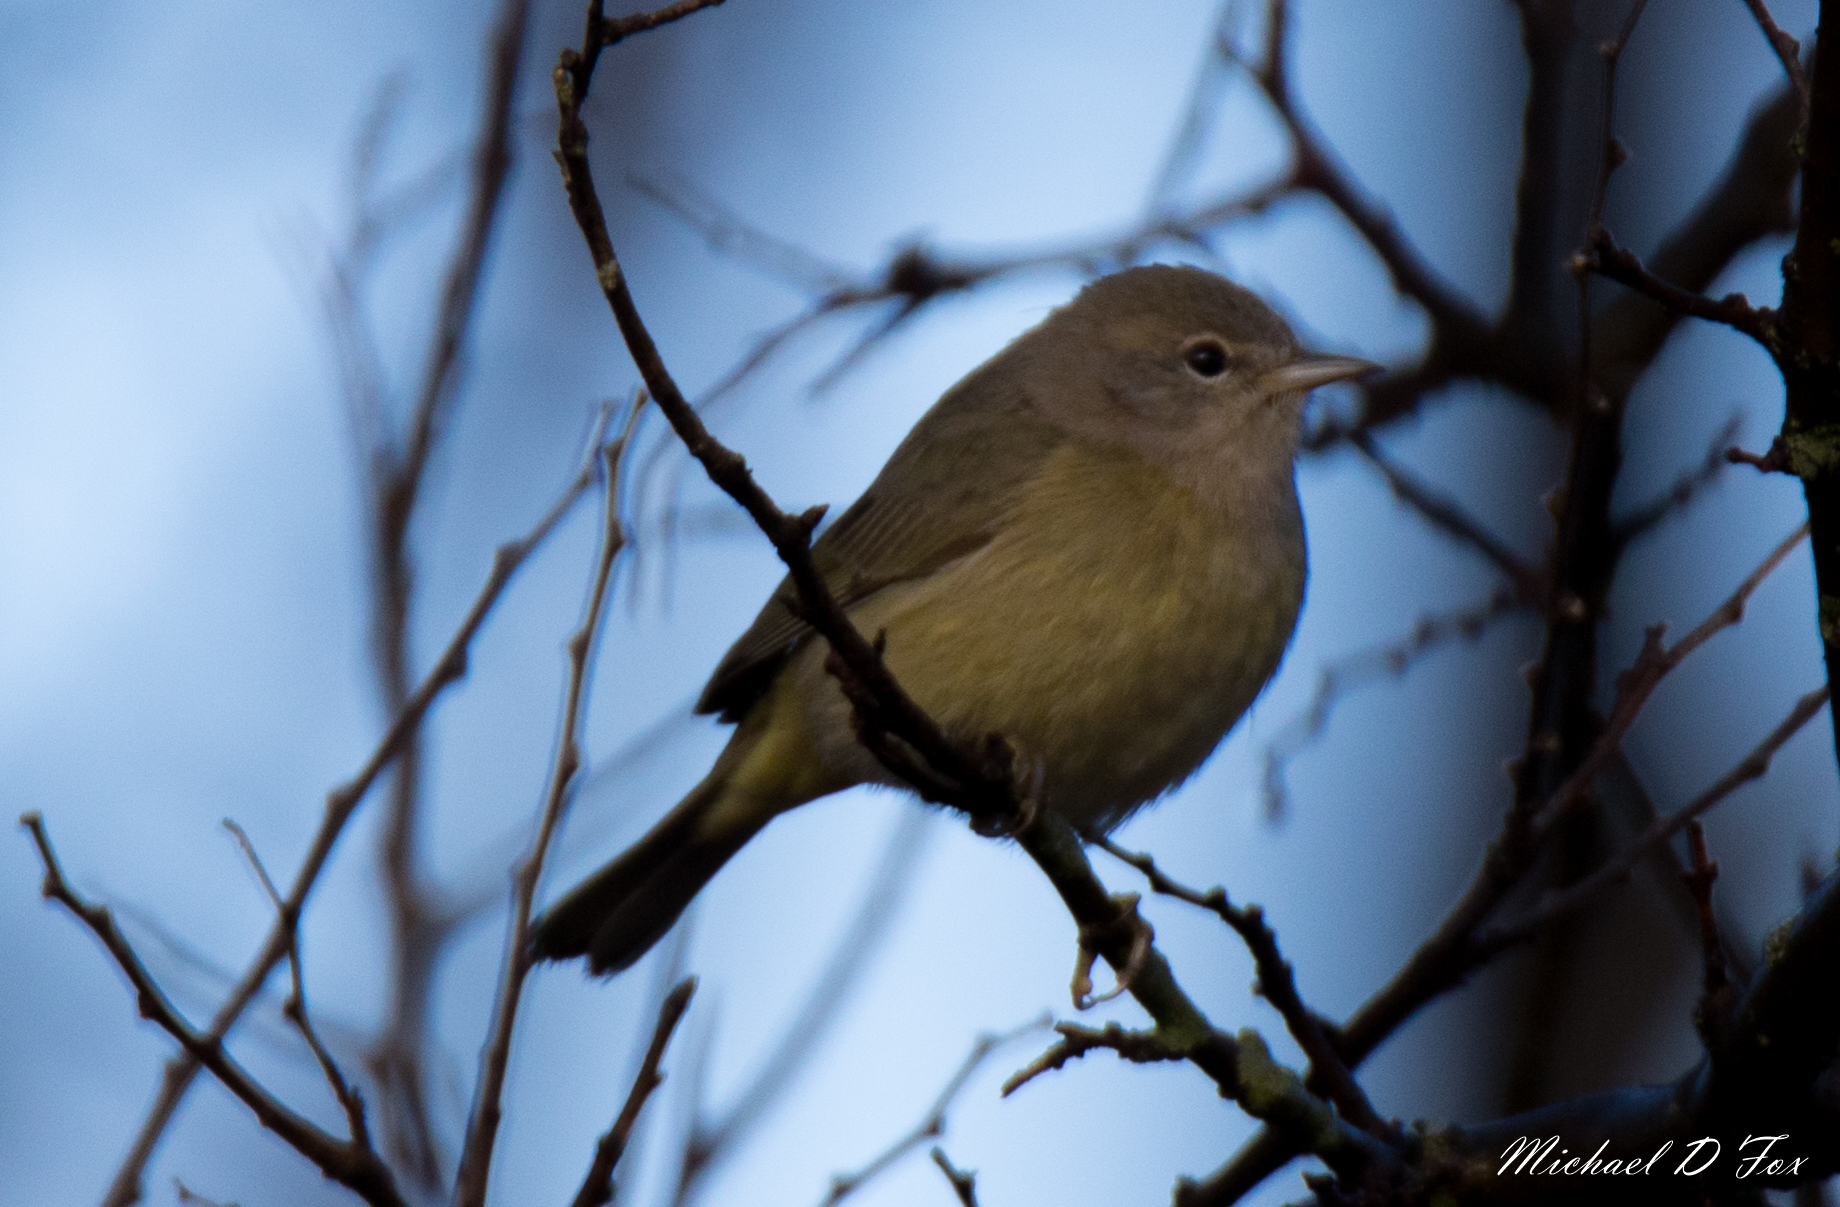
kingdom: Animalia
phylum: Chordata
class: Aves
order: Passeriformes
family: Parulidae
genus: Leiothlypis
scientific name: Leiothlypis celata
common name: Orange-crowned warbler
